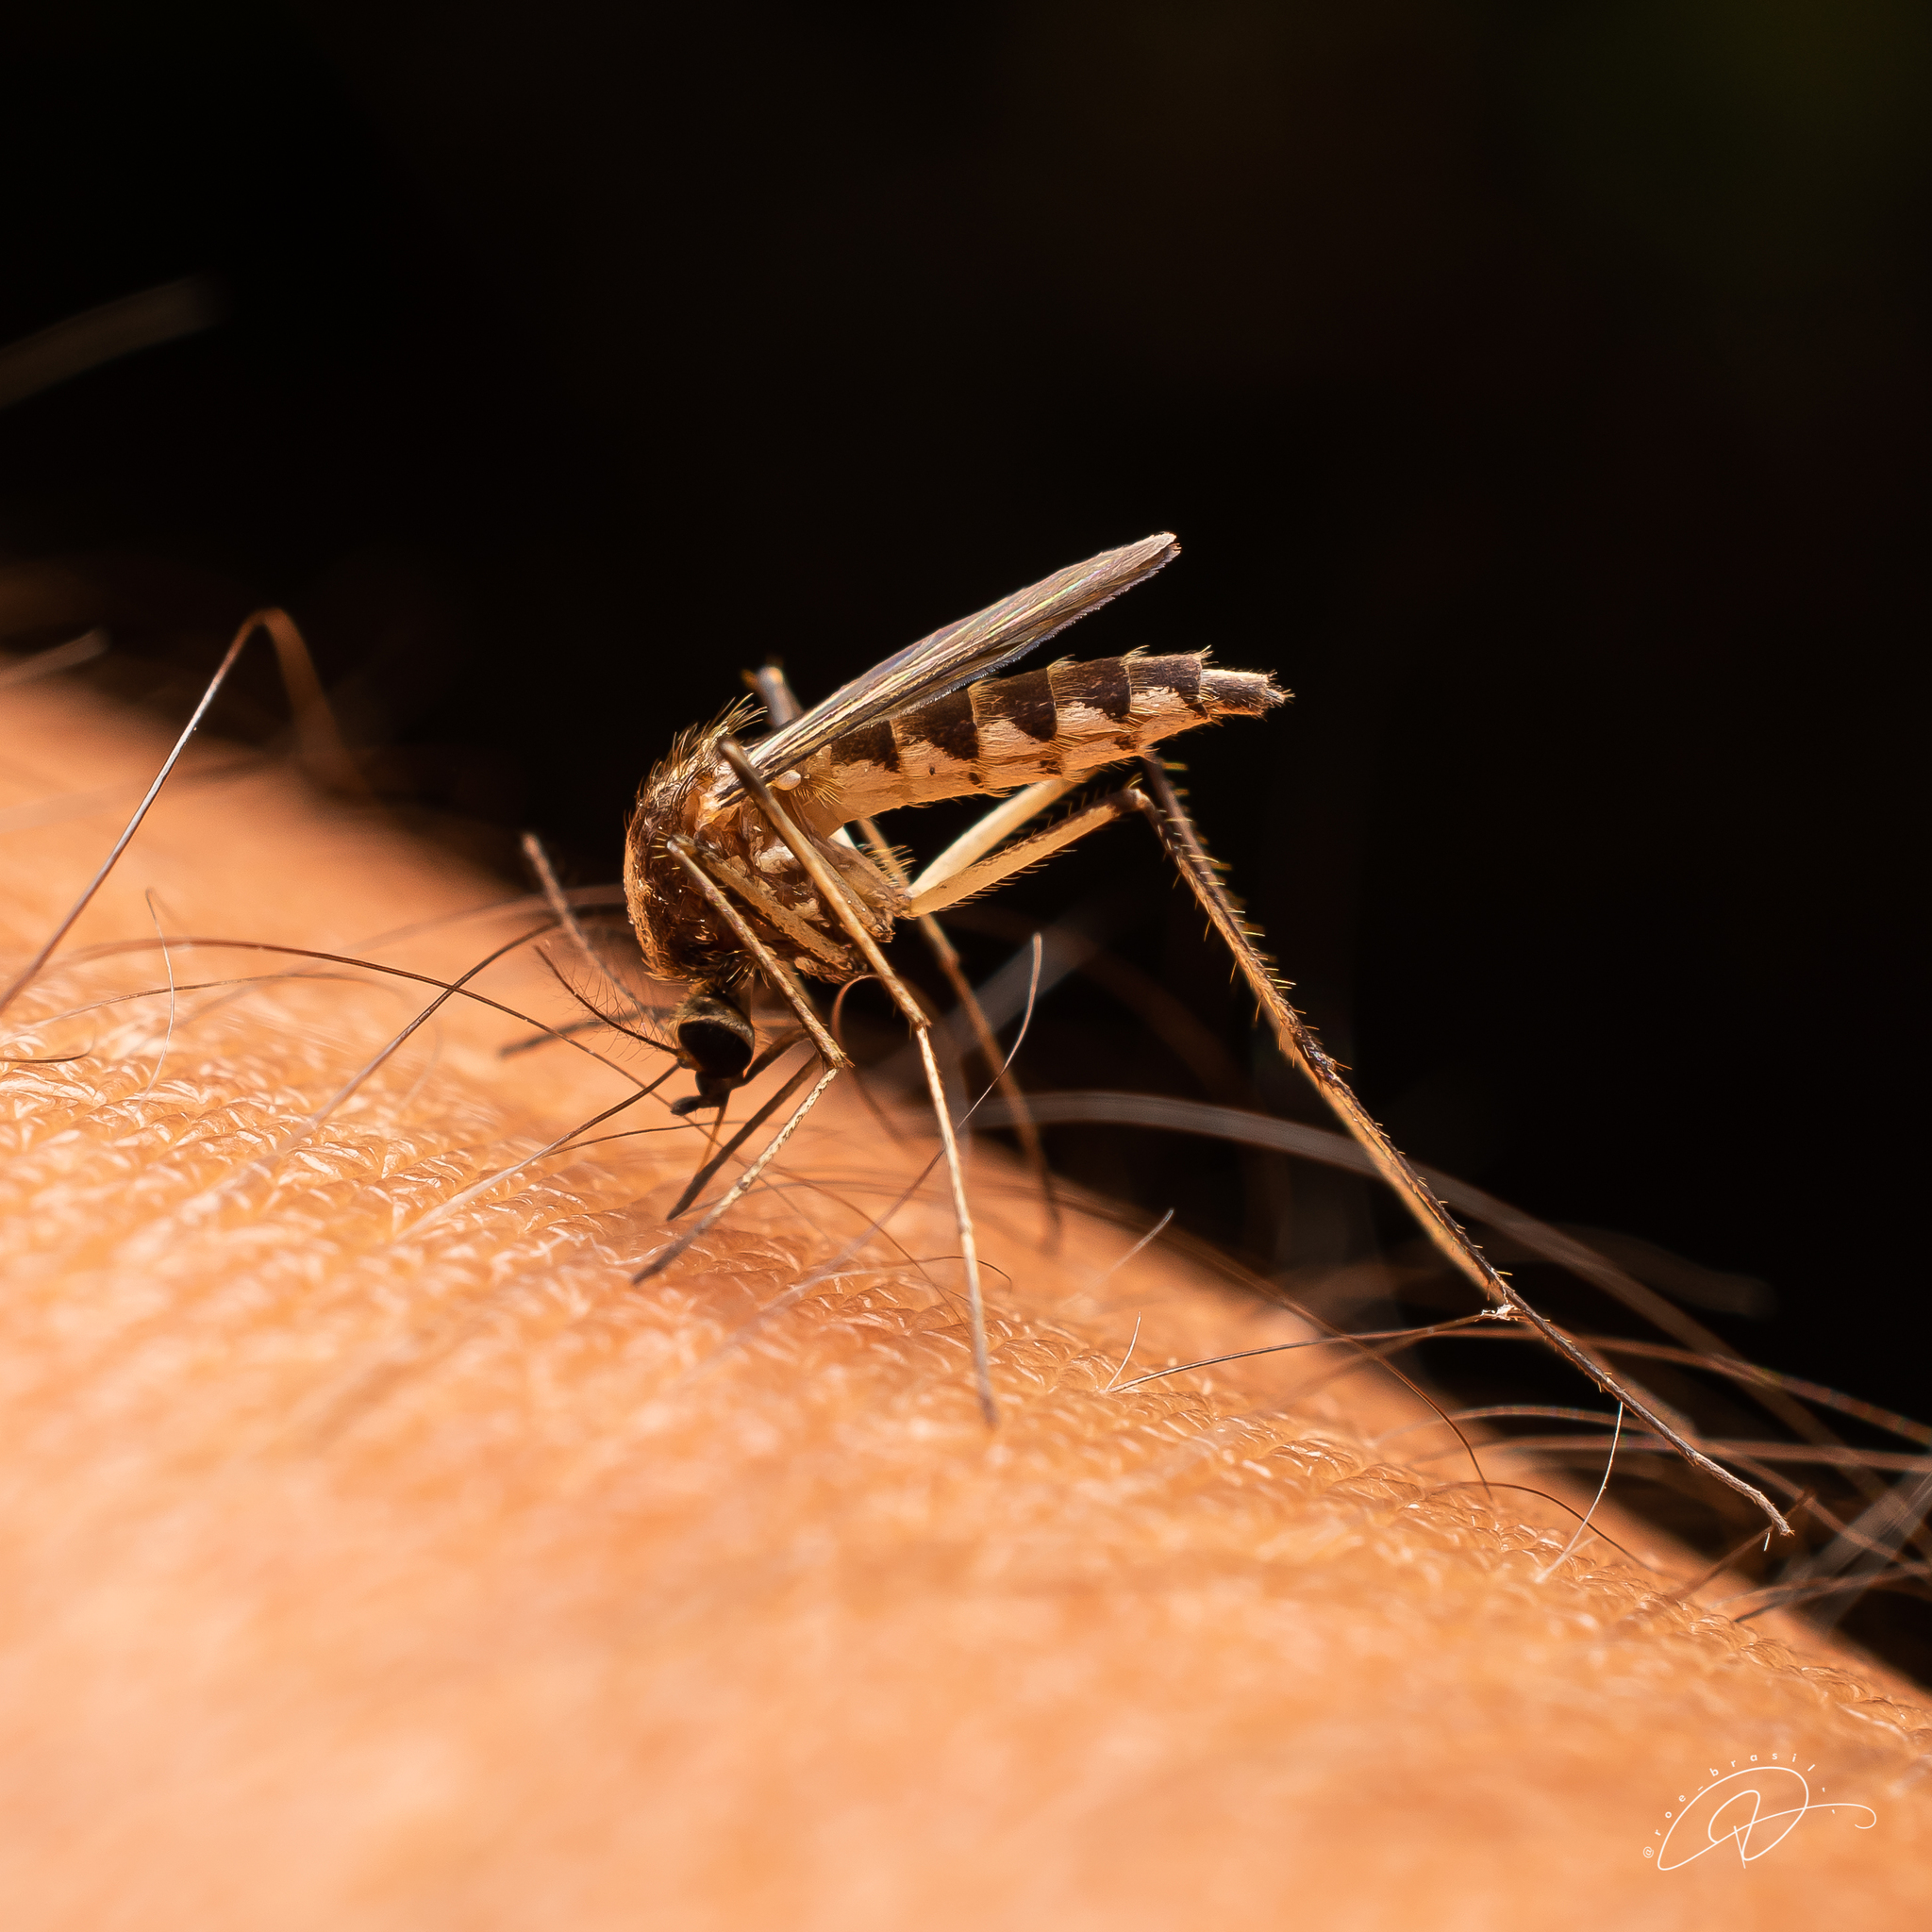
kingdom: Animalia
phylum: Arthropoda
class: Insecta
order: Diptera
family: Culicidae
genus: Aedes
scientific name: Aedes scapularis
